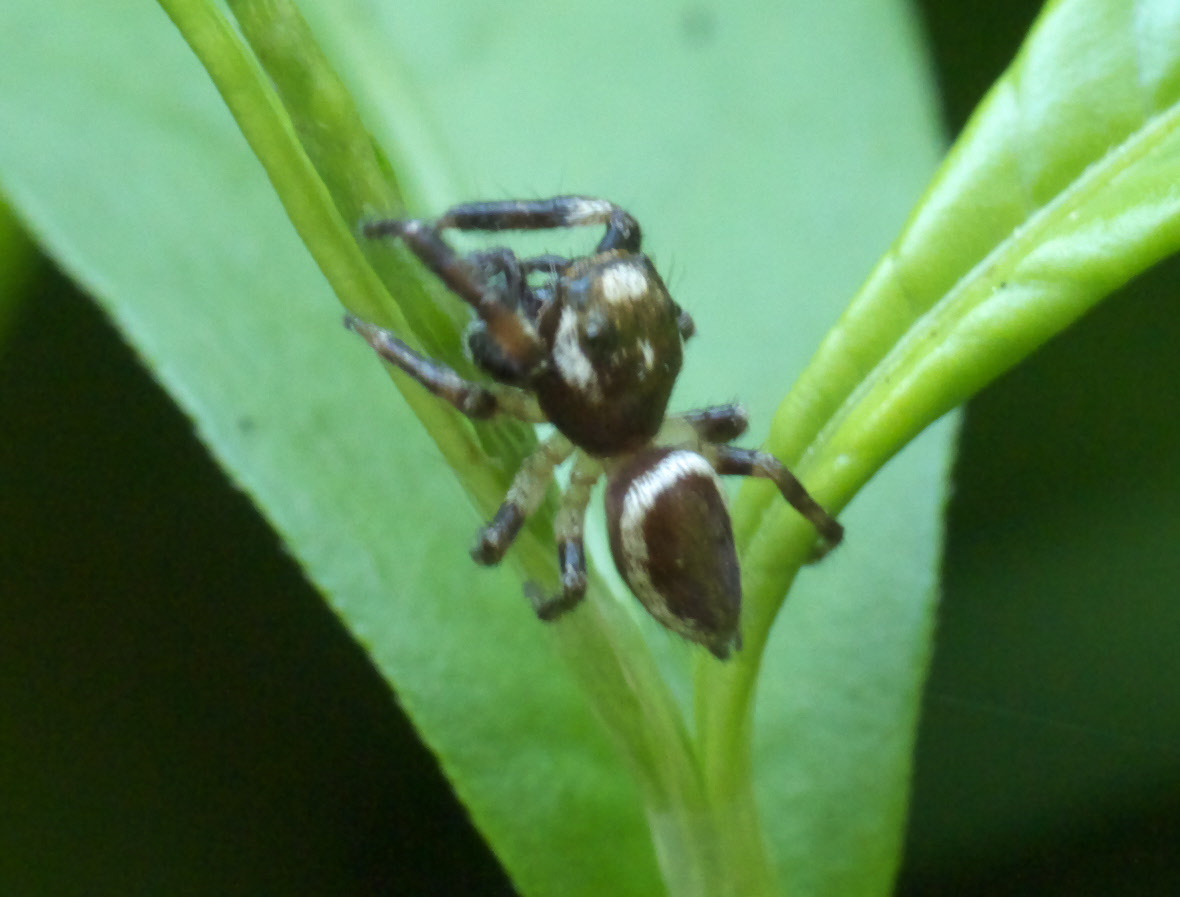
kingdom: Animalia
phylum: Arthropoda
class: Arachnida
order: Araneae
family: Salticidae
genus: Eris
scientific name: Eris militaris
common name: Bronze jumper
